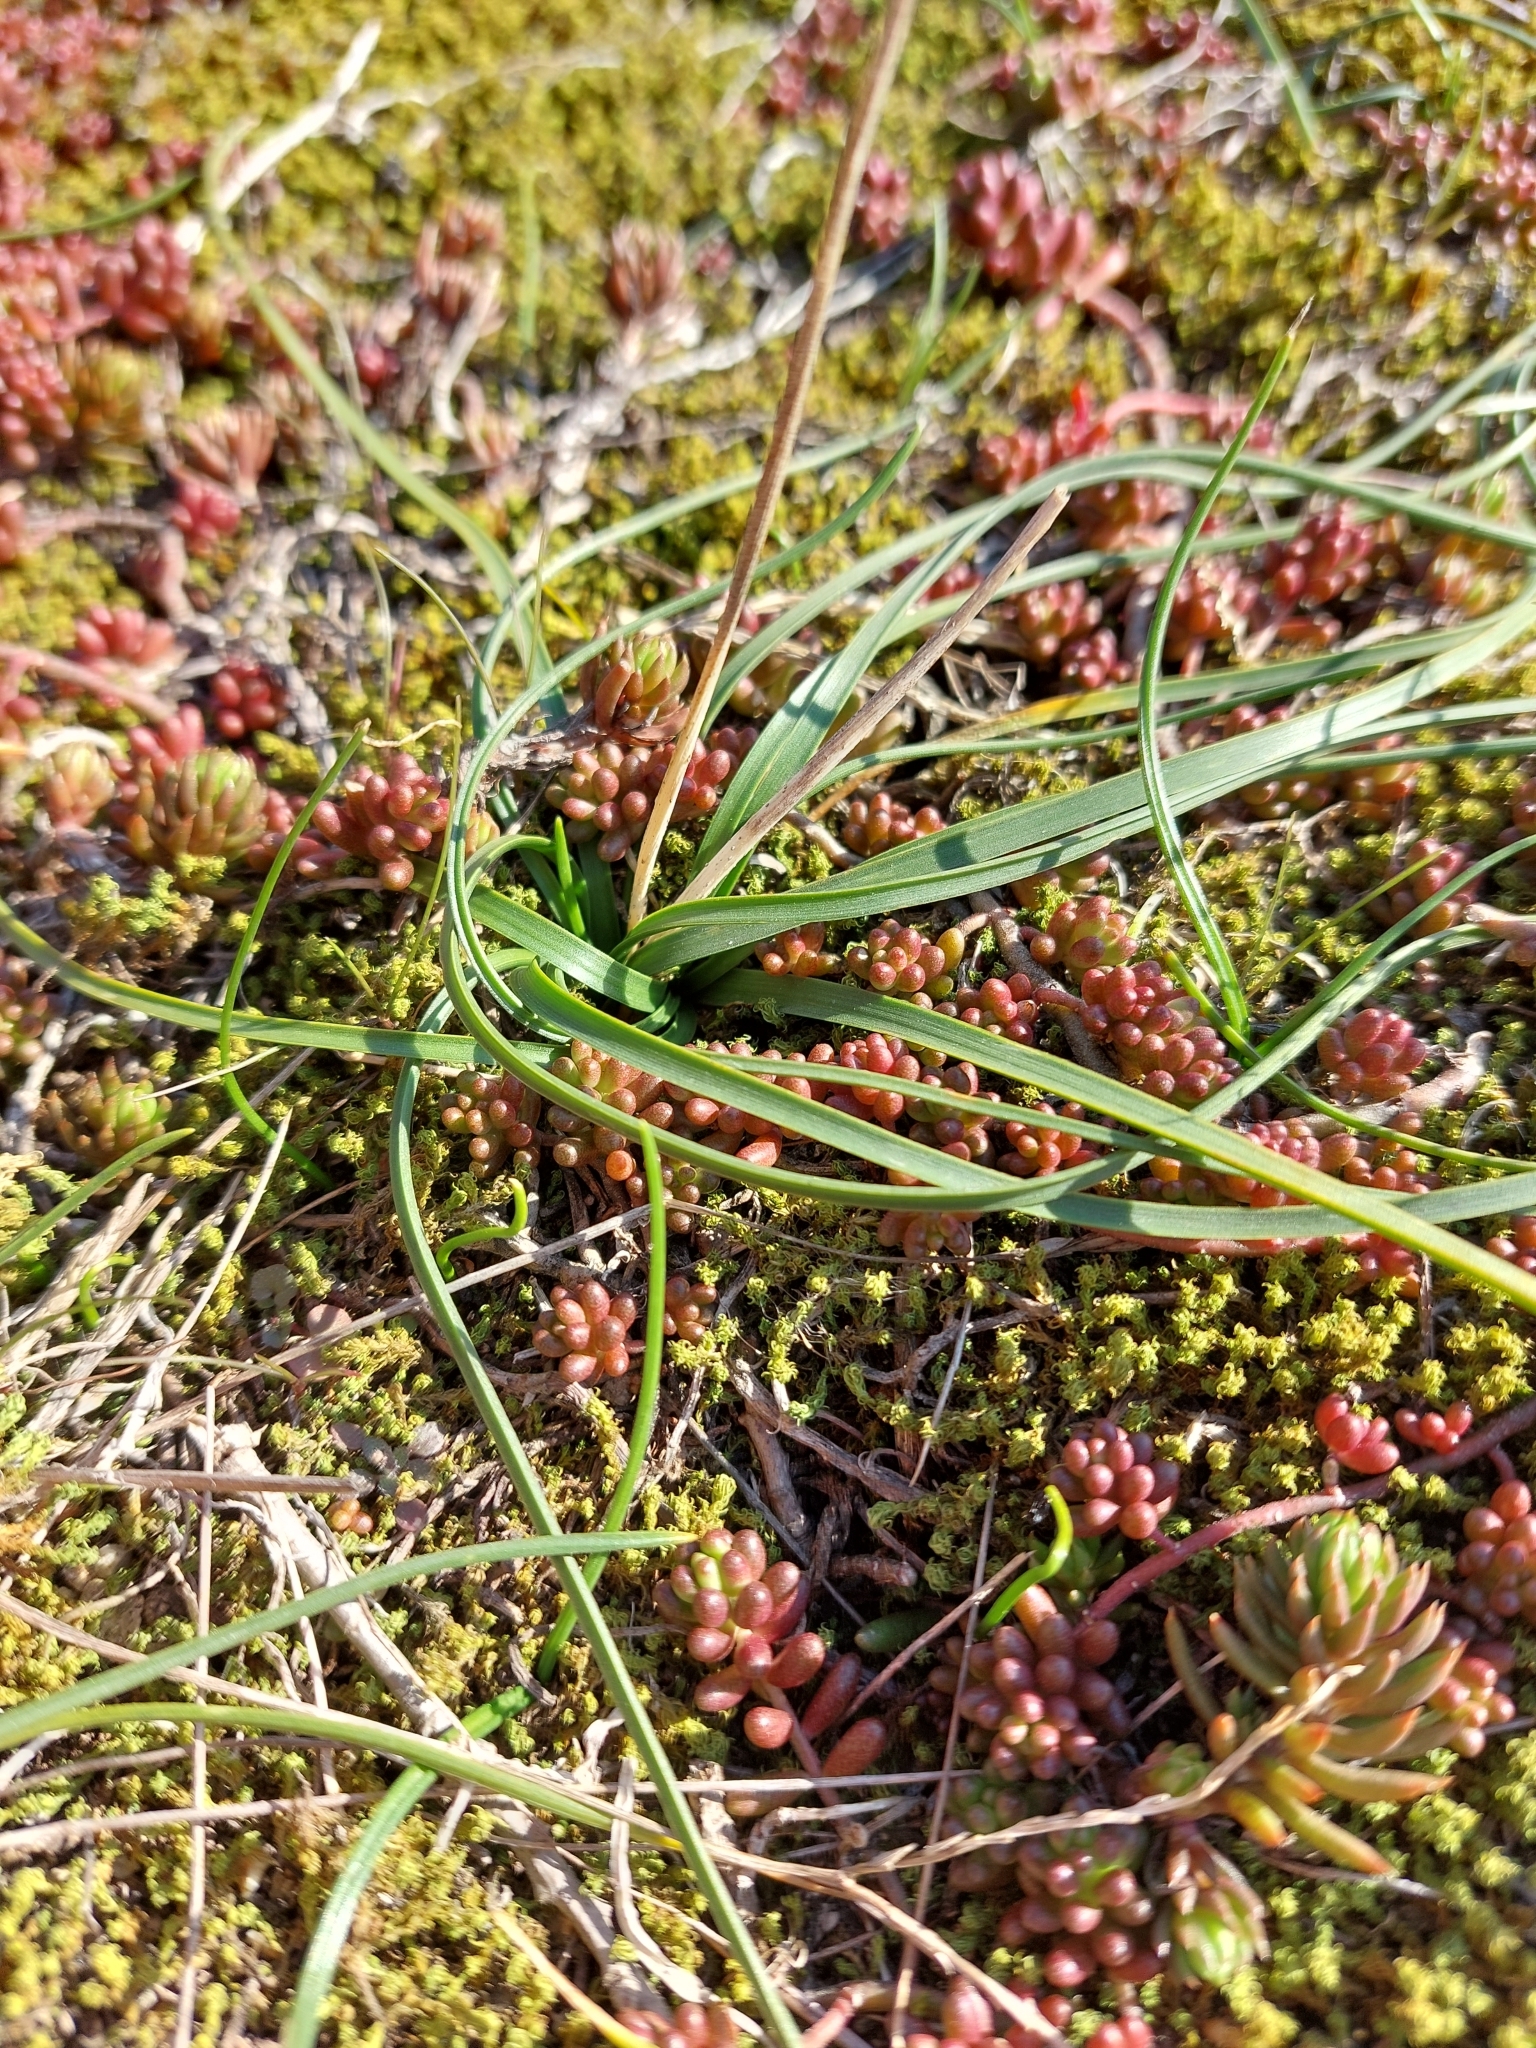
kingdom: Plantae
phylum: Tracheophyta
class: Liliopsida
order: Asparagales
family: Asparagaceae
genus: Prospero
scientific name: Prospero autumnale
